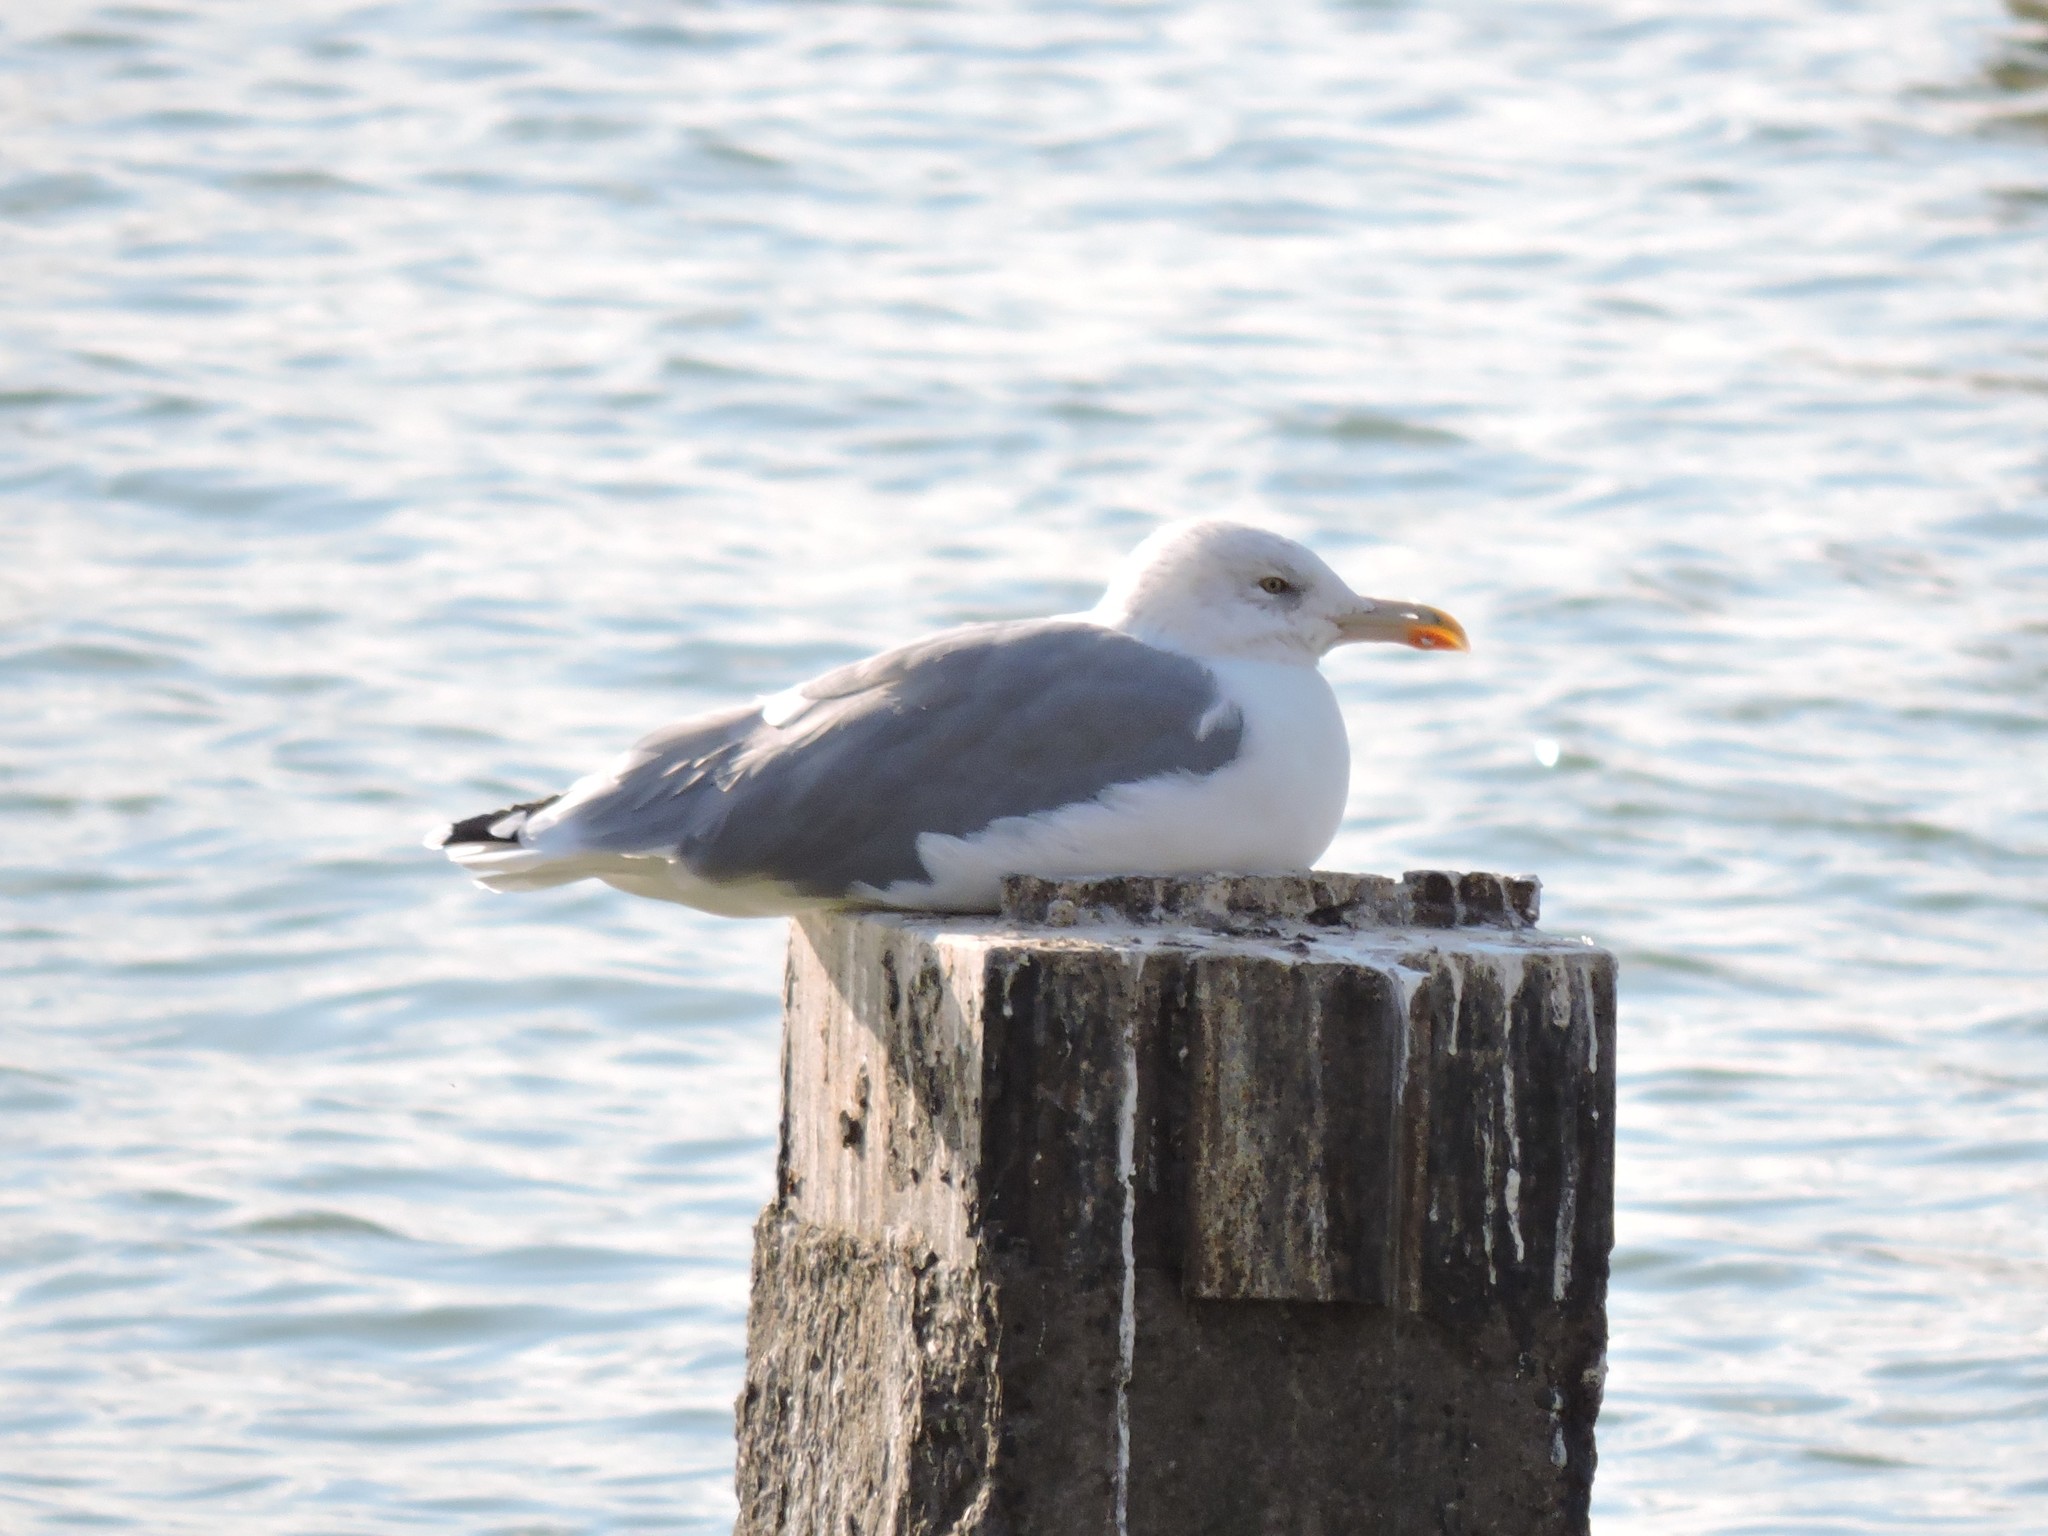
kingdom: Animalia
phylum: Chordata
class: Aves
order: Charadriiformes
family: Laridae
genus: Larus
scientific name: Larus argentatus
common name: Herring gull
